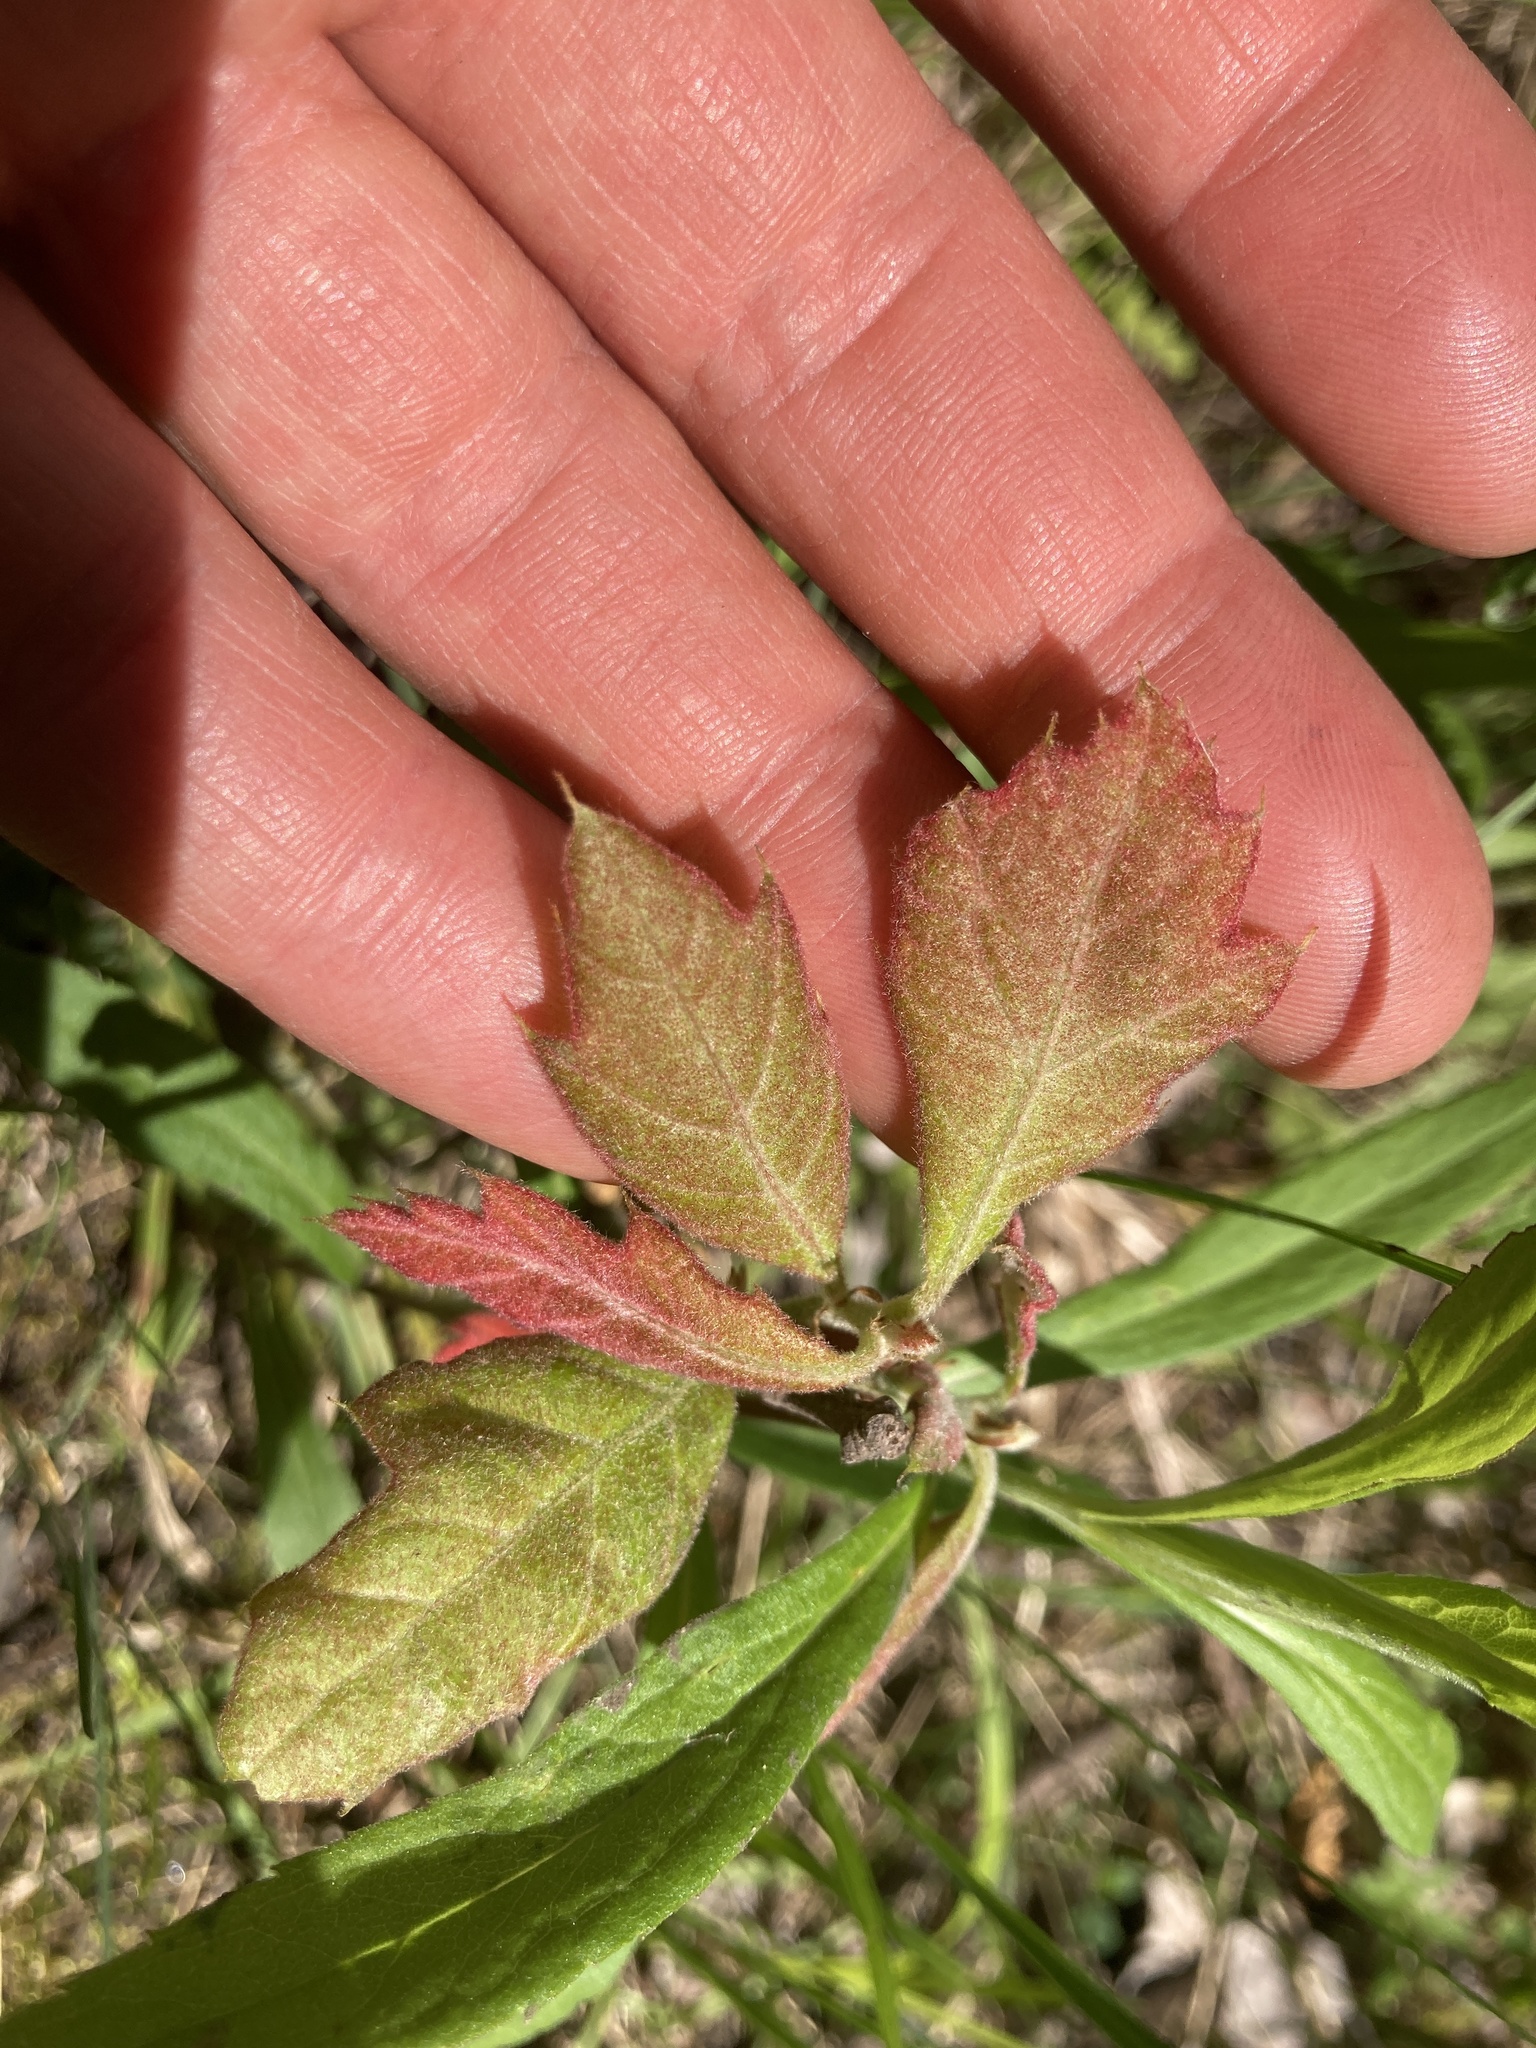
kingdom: Plantae
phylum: Tracheophyta
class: Magnoliopsida
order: Fagales
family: Fagaceae
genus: Quercus
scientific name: Quercus rubra
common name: Red oak
